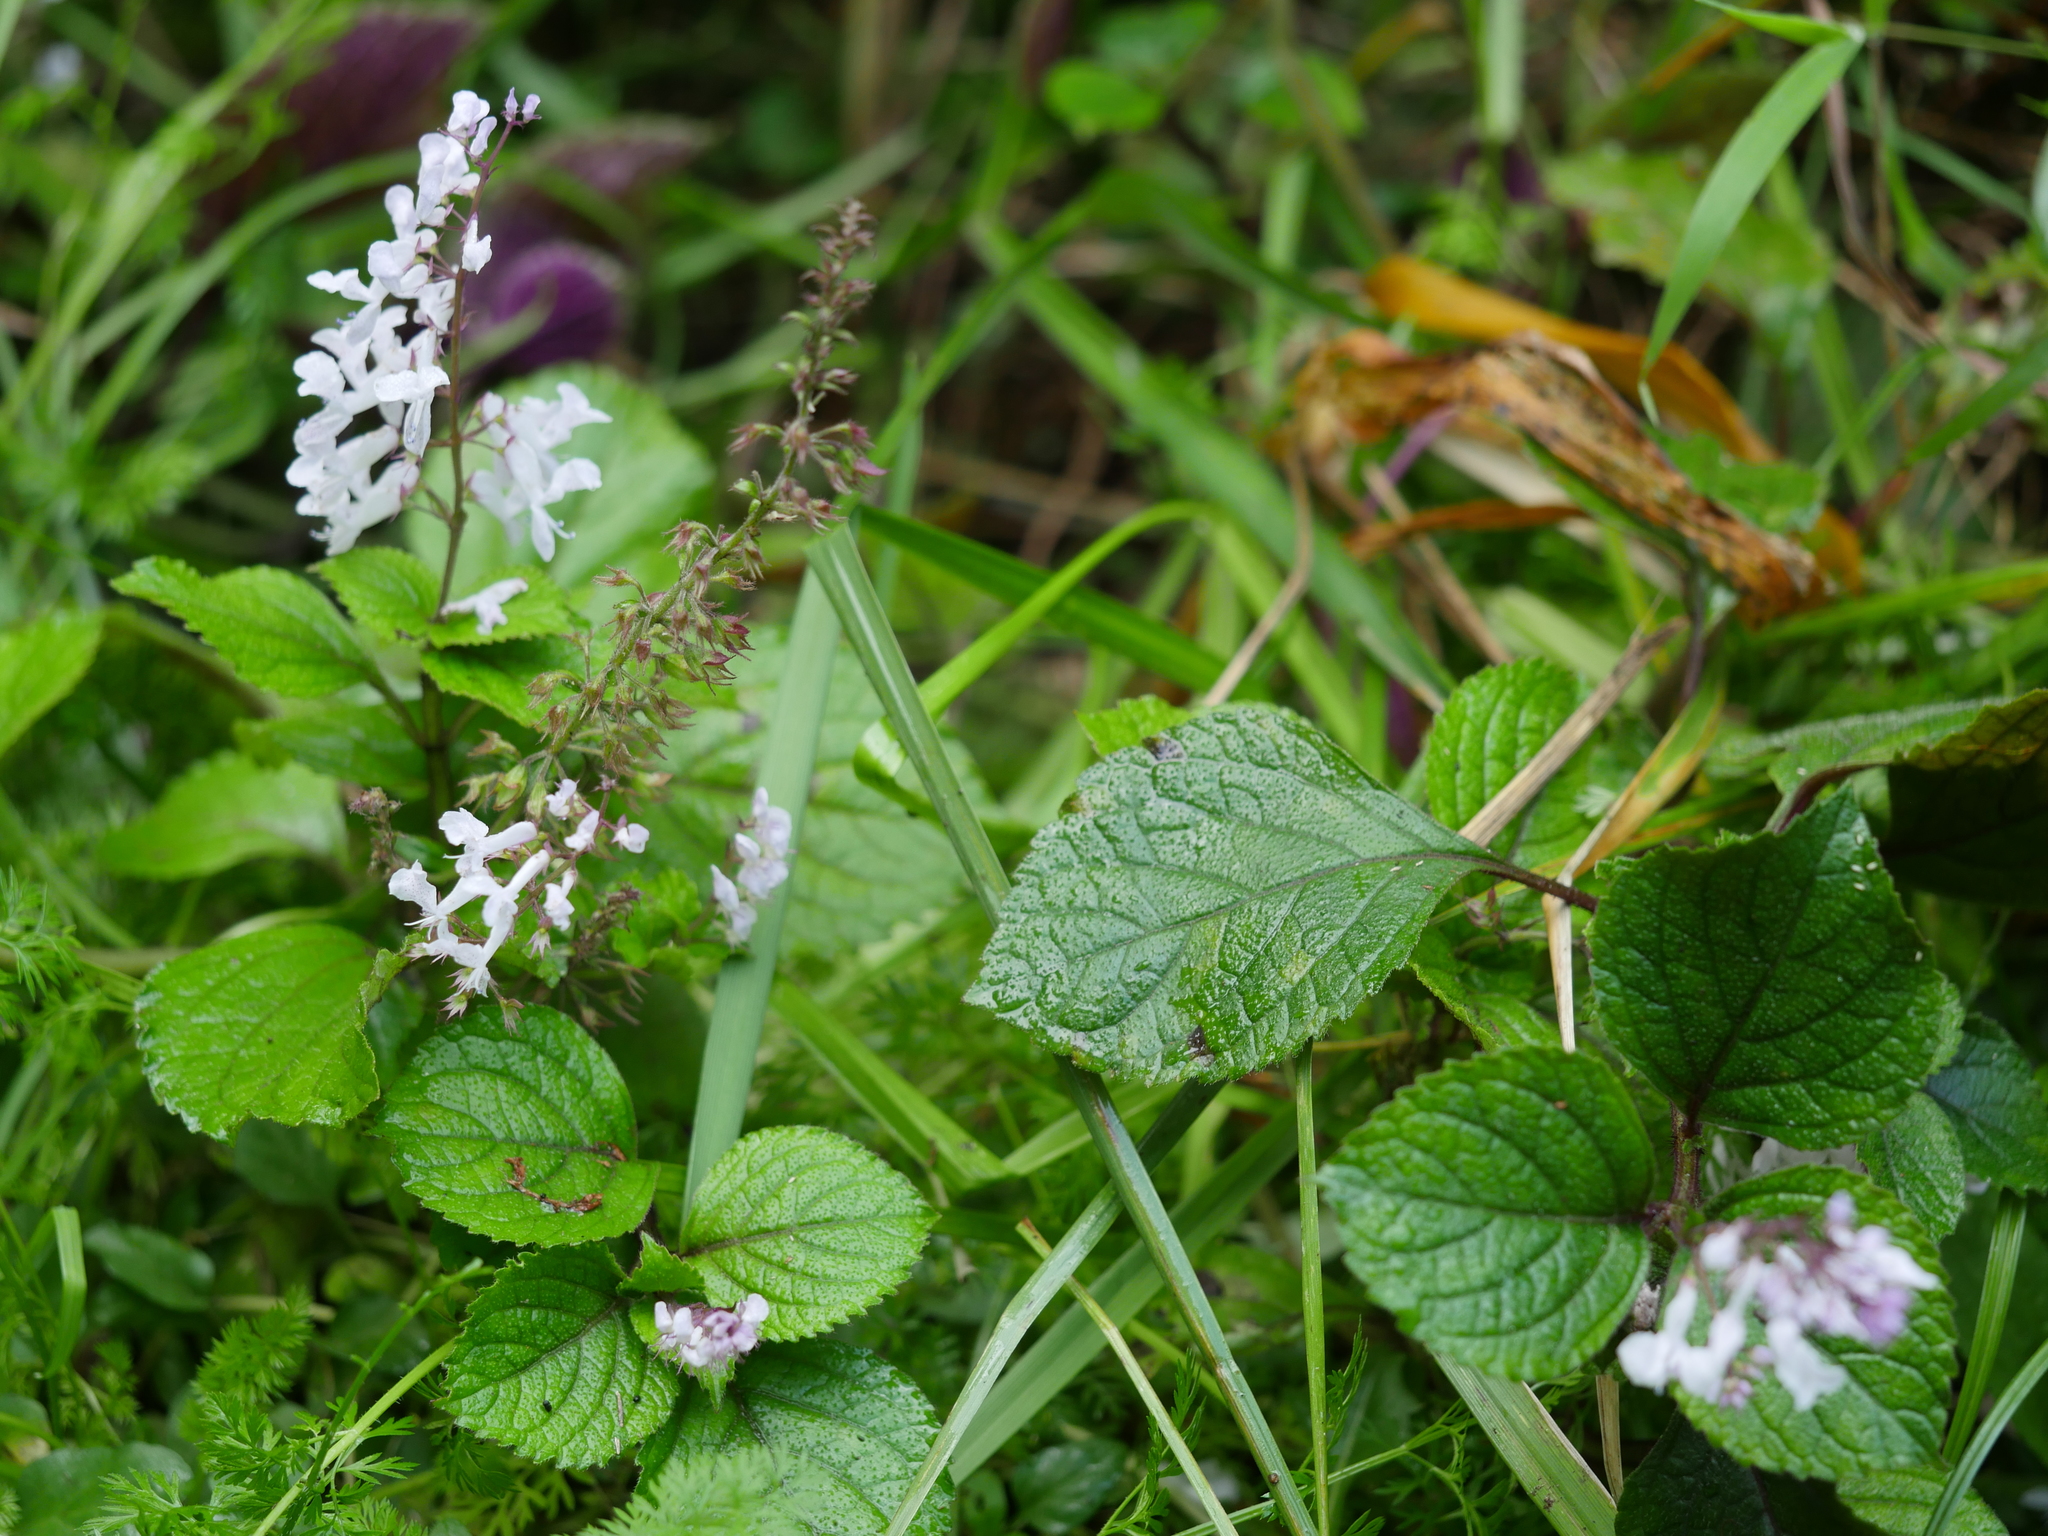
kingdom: Plantae
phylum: Tracheophyta
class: Magnoliopsida
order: Lamiales
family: Lamiaceae
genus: Plectranthus
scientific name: Plectranthus ciliatus
